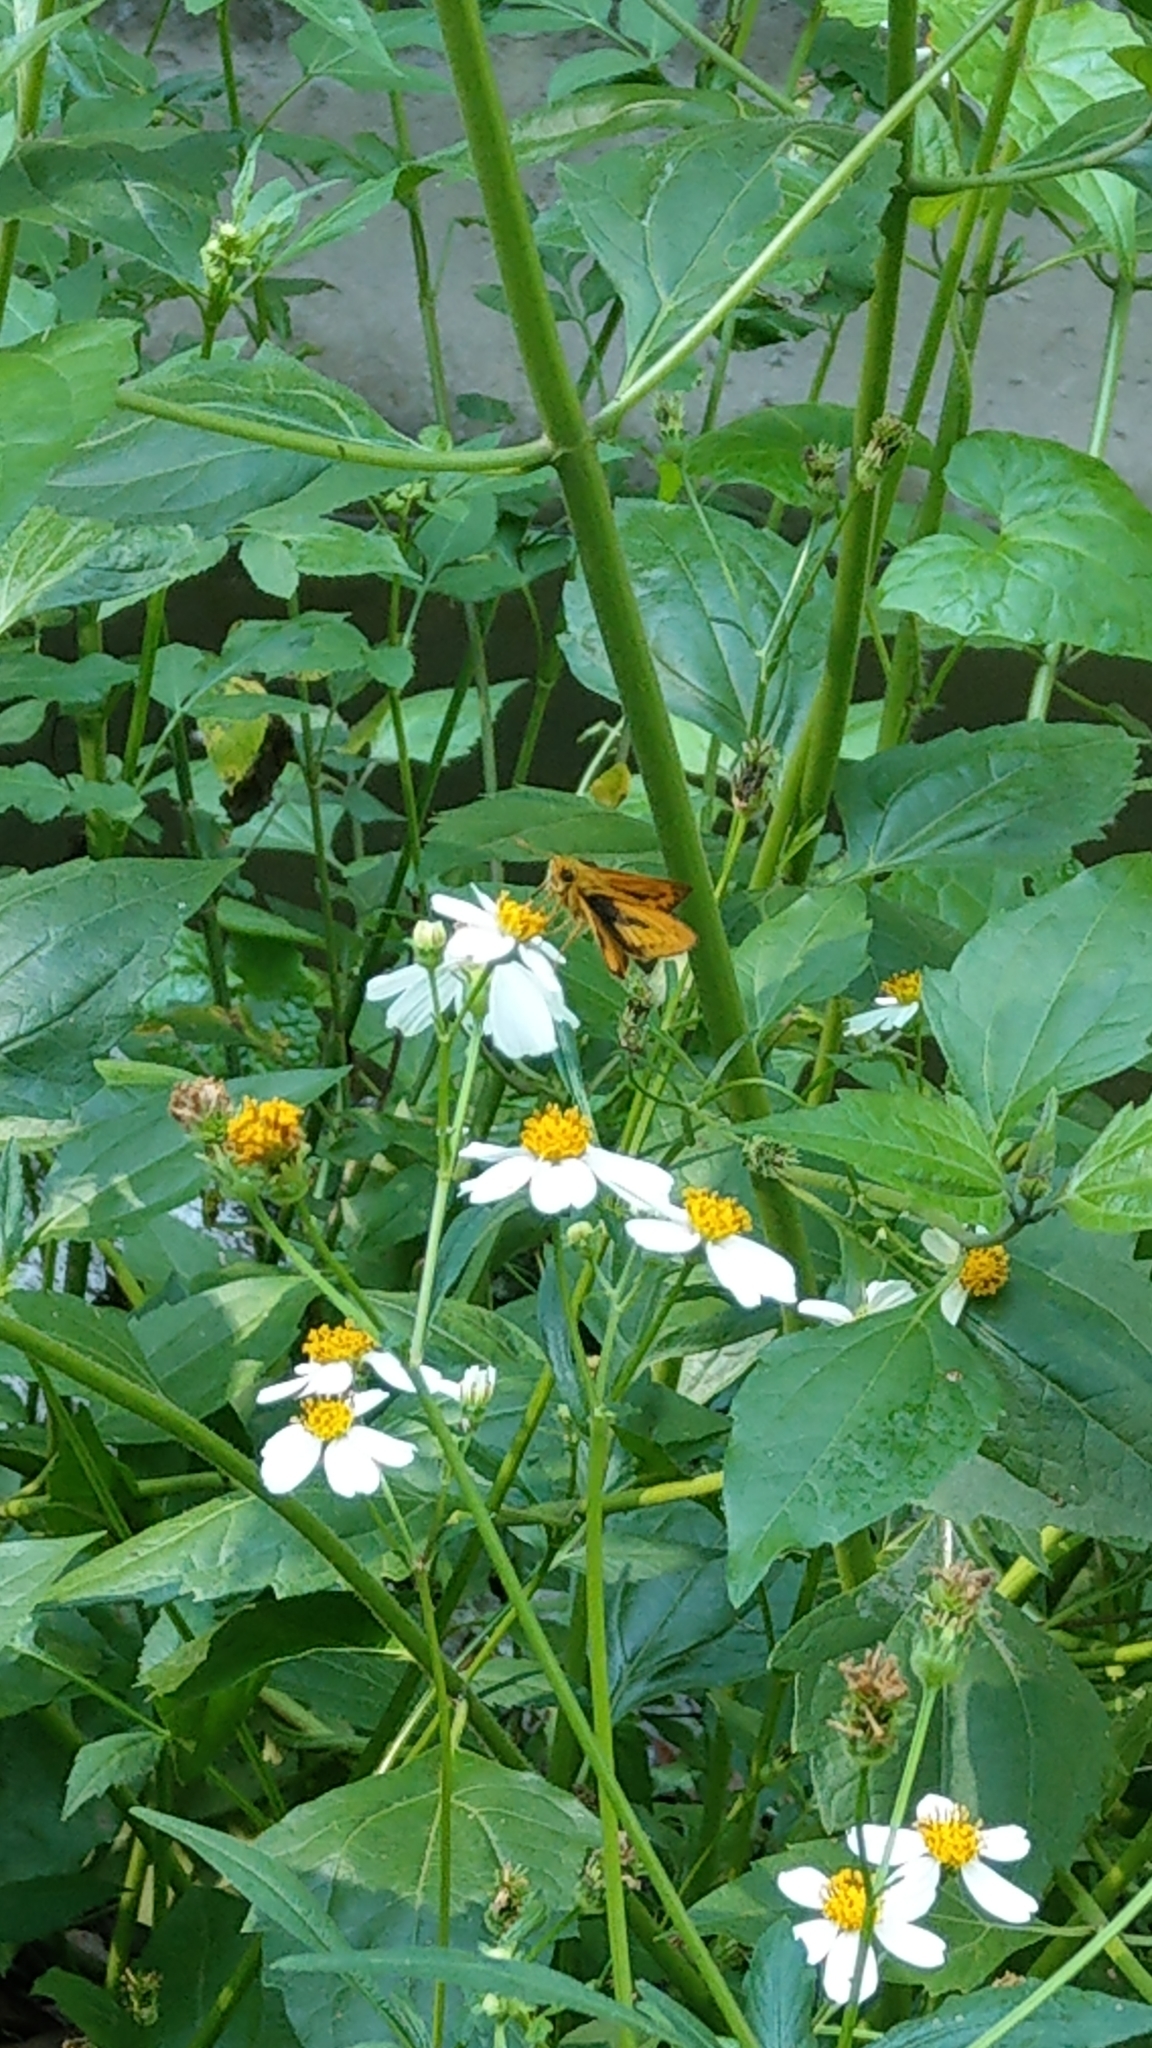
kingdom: Animalia
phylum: Arthropoda
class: Insecta
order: Lepidoptera
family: Hesperiidae
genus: Telicota
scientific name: Telicota bambusae
